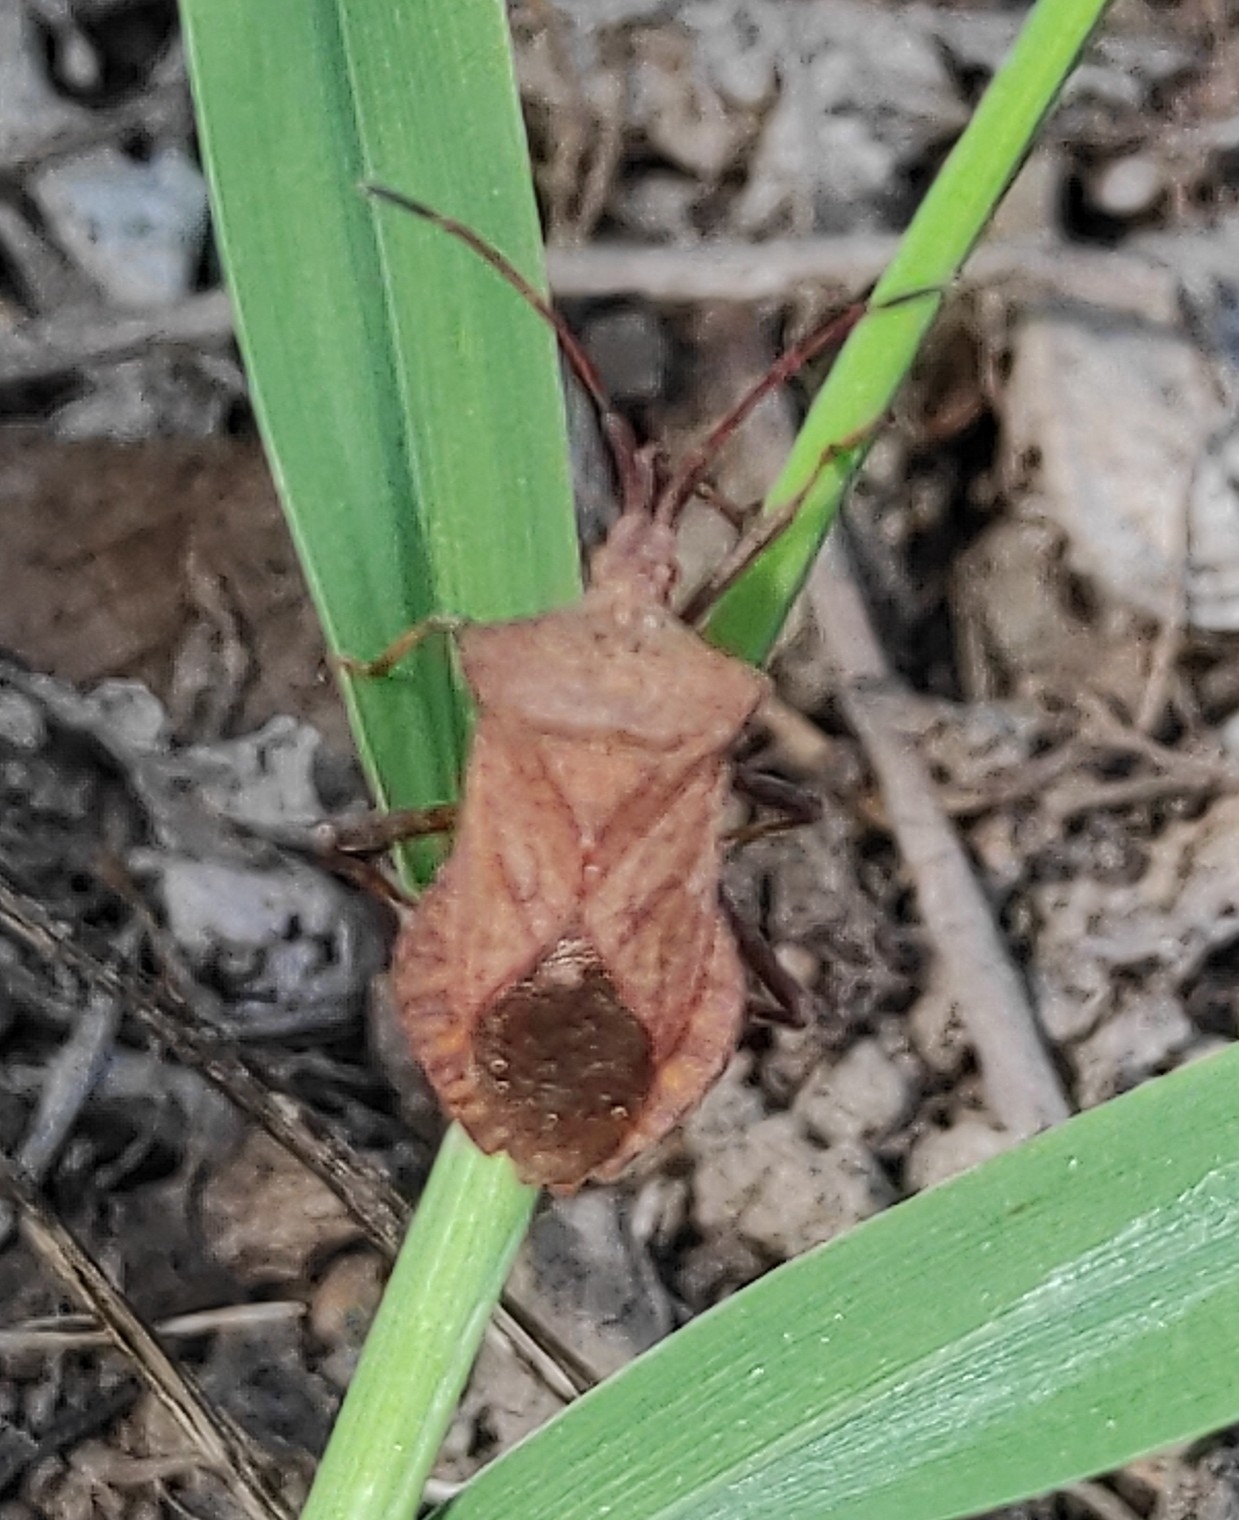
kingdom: Animalia
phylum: Arthropoda
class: Insecta
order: Hemiptera
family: Coreidae
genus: Coreus
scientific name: Coreus marginatus
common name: Dock bug
